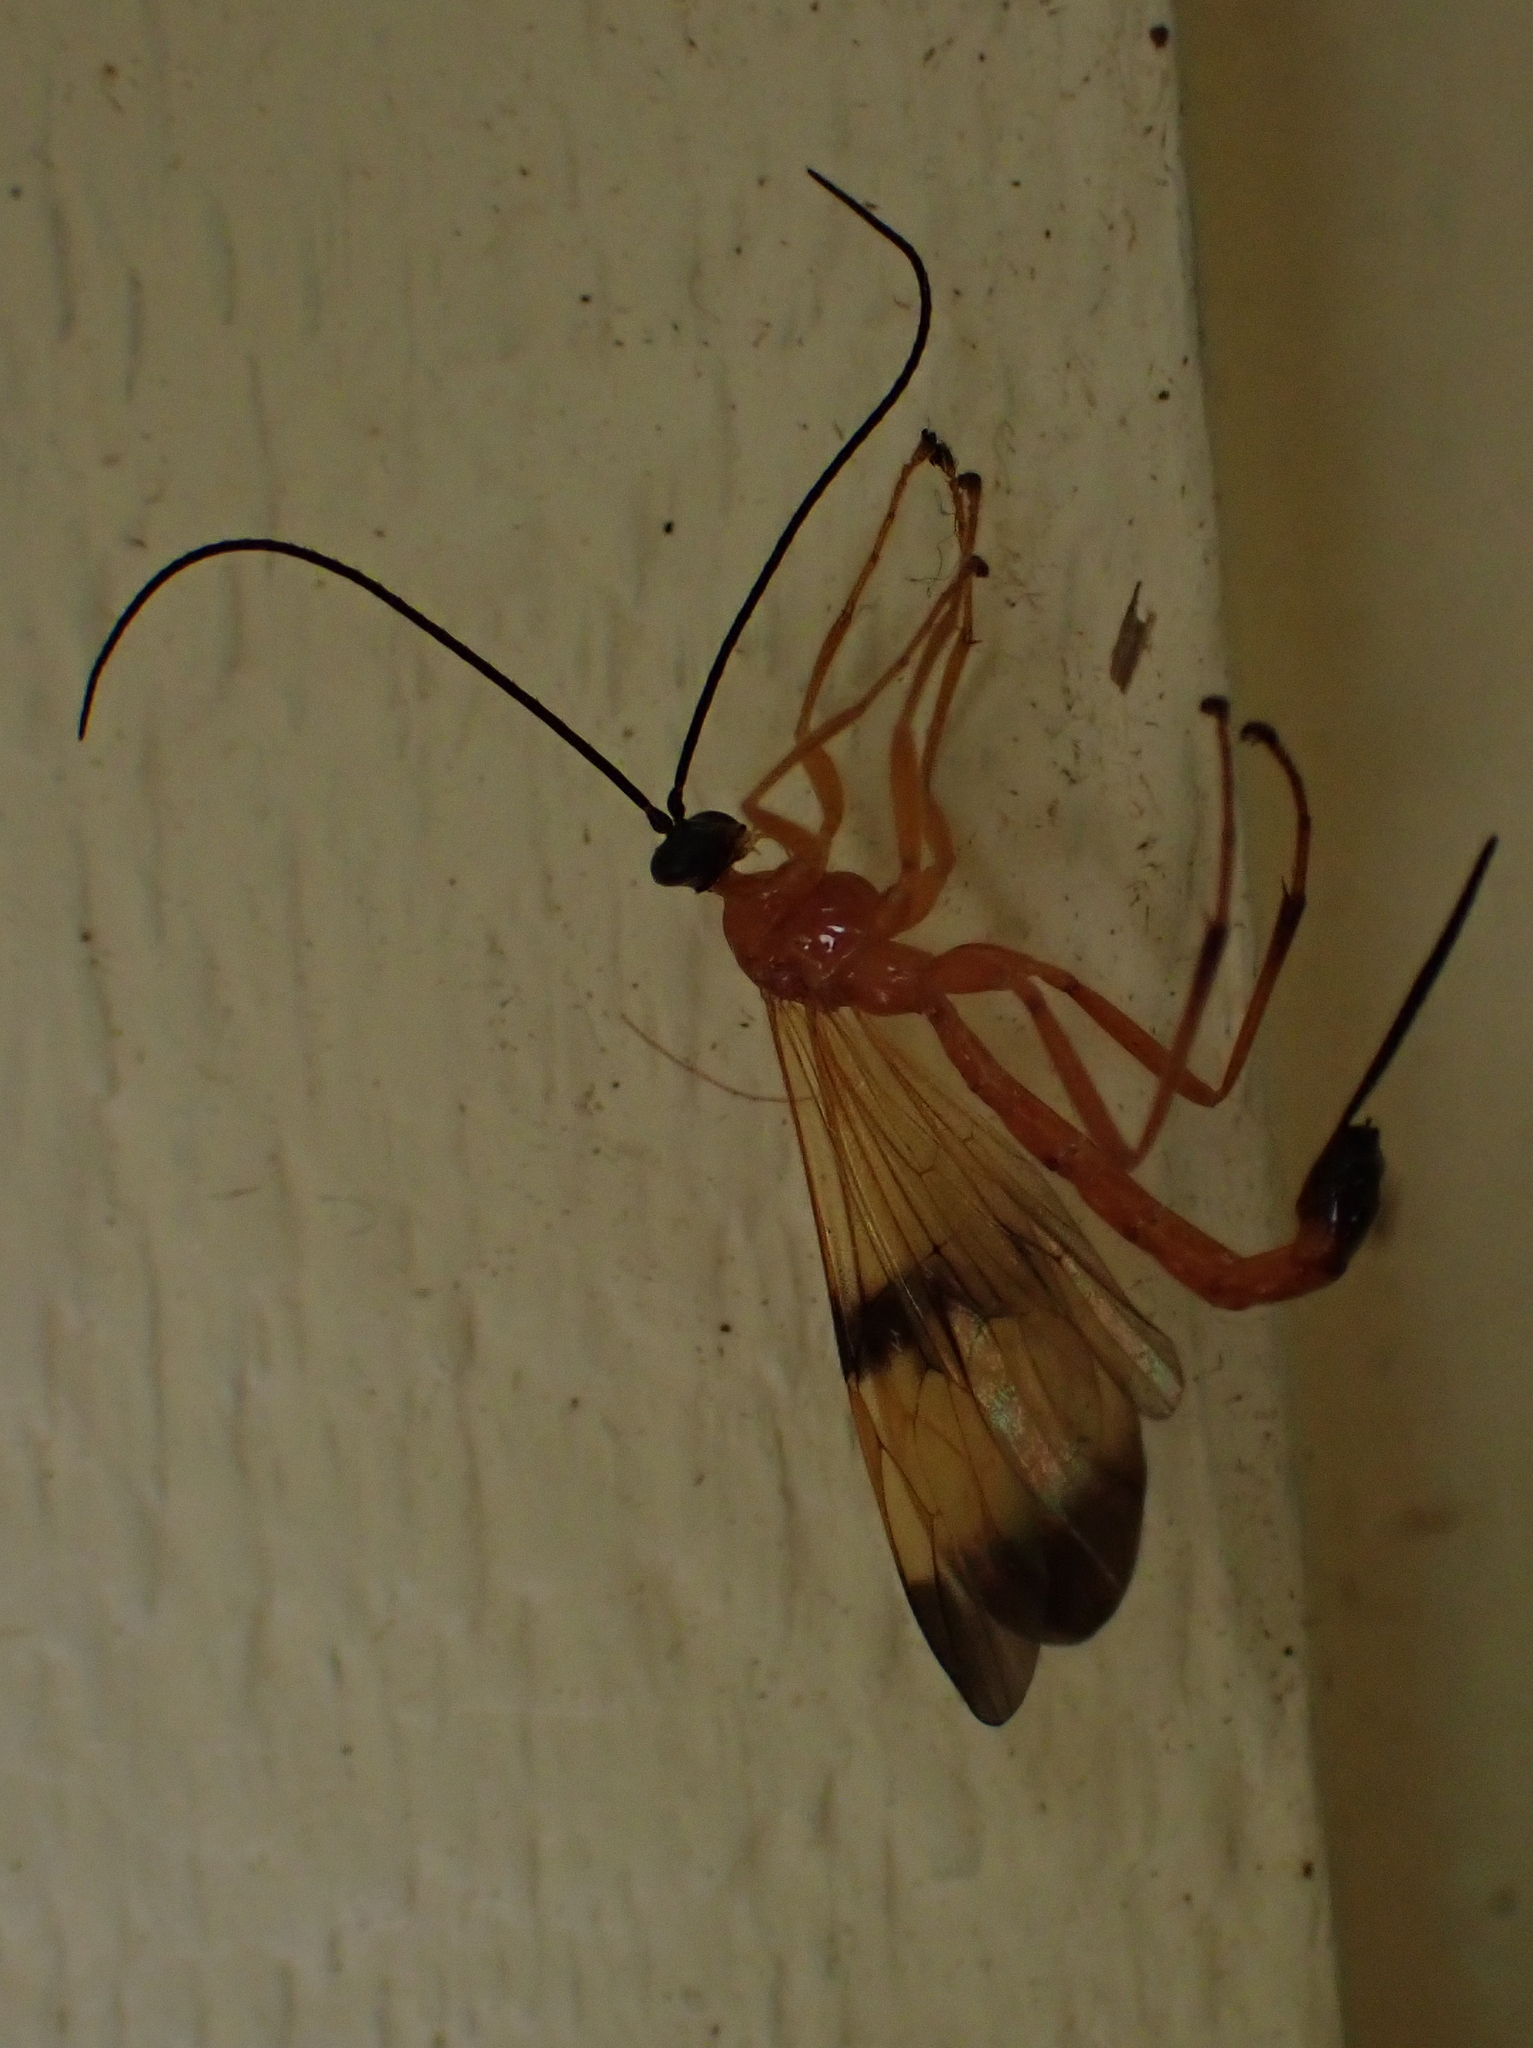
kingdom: Animalia
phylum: Arthropoda
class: Insecta
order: Hymenoptera
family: Ichneumonidae
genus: Acrotaphus
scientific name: Acrotaphus wiltii
